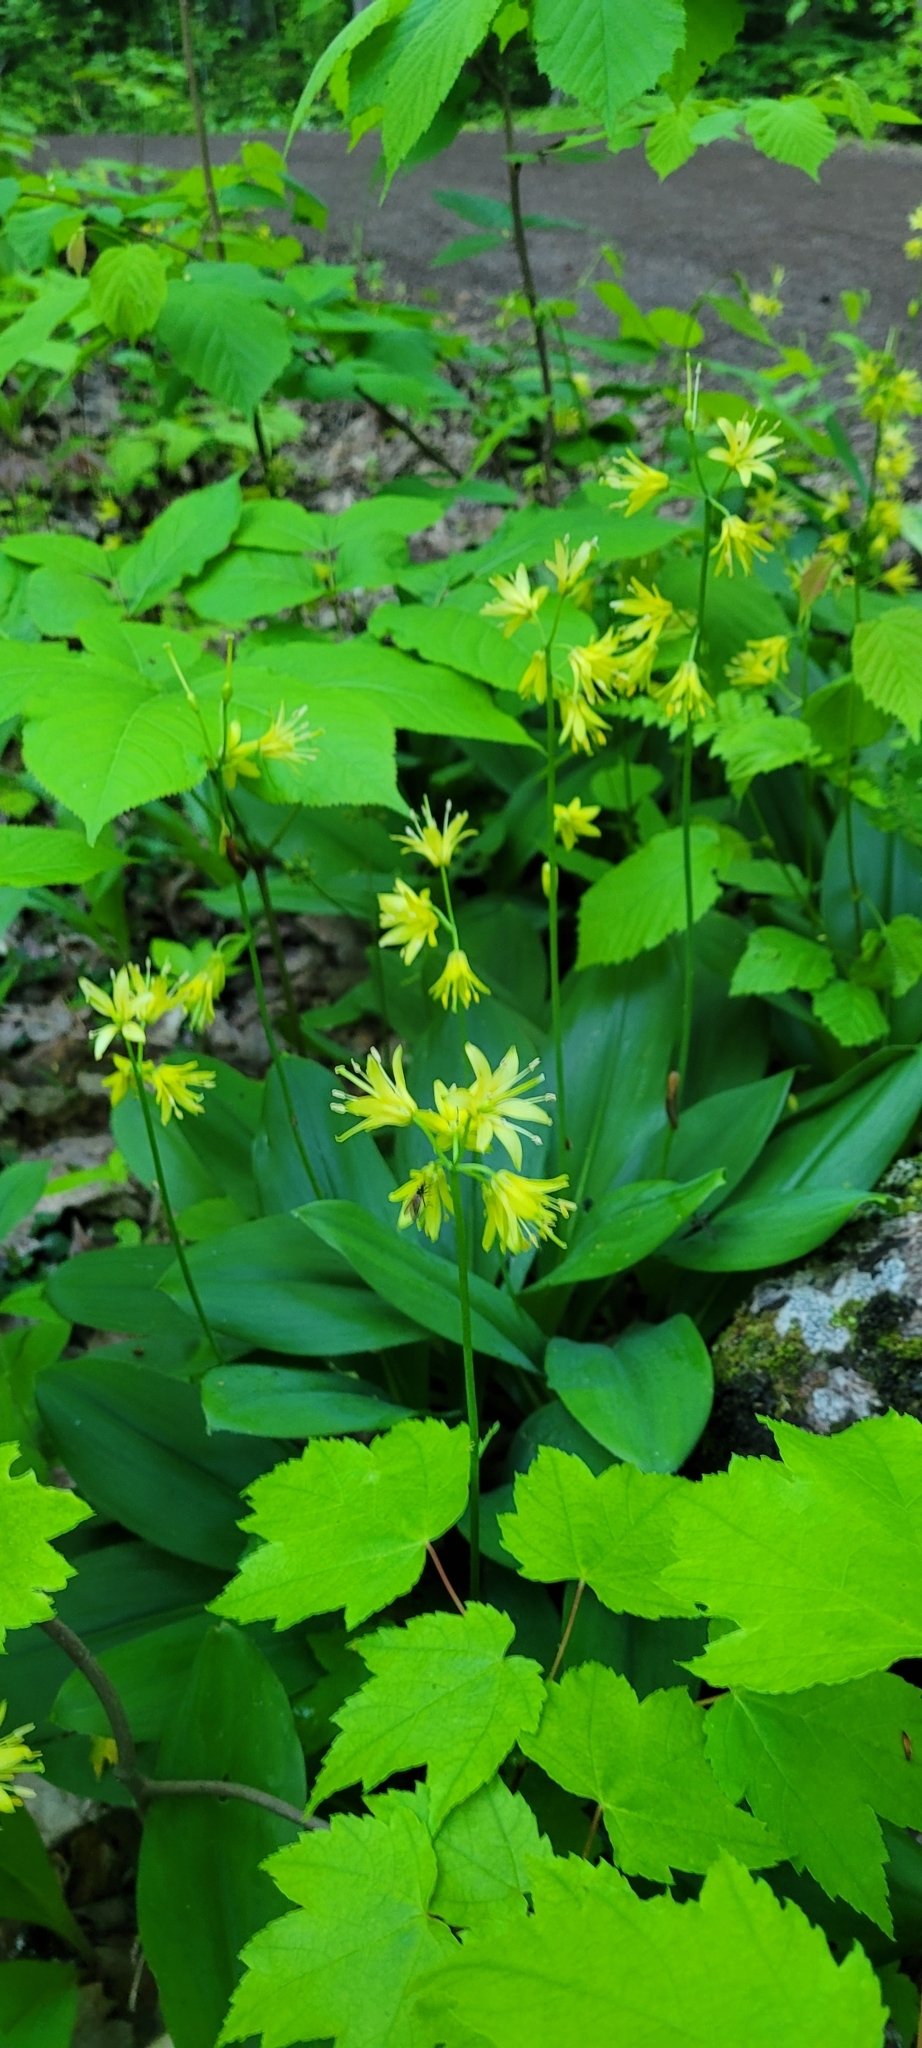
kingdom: Plantae
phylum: Tracheophyta
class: Liliopsida
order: Liliales
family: Liliaceae
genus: Clintonia
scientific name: Clintonia borealis
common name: Yellow clintonia
